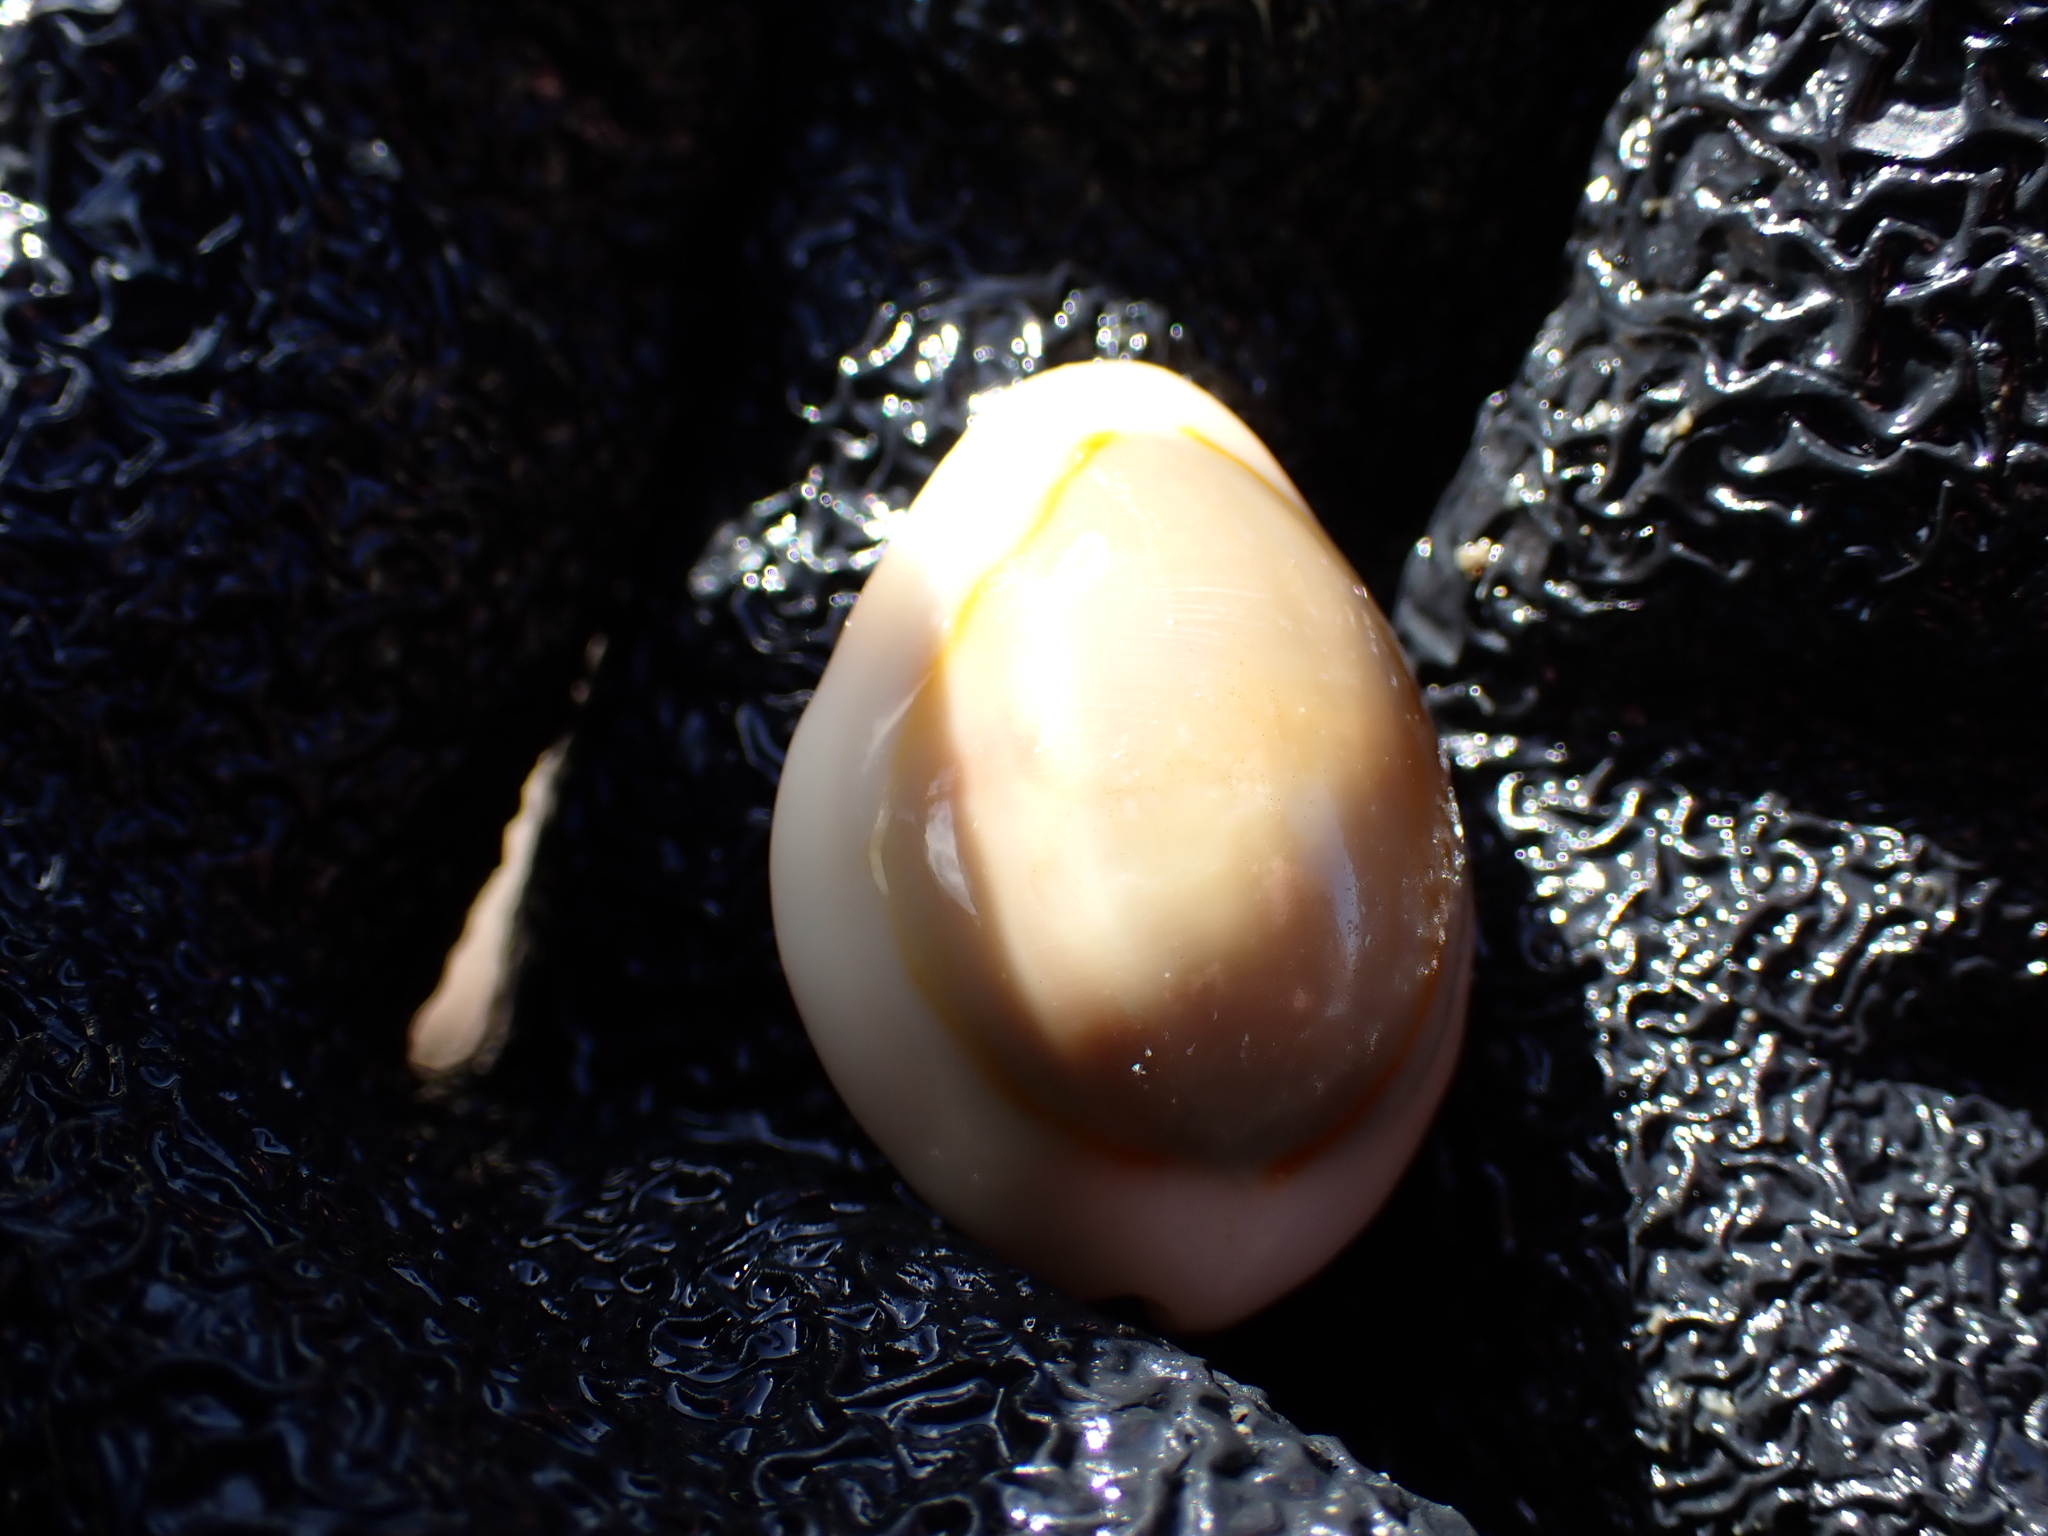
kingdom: Animalia
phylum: Mollusca
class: Gastropoda
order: Littorinimorpha
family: Cypraeidae
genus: Monetaria
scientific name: Monetaria annulus
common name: Ring cowrie
